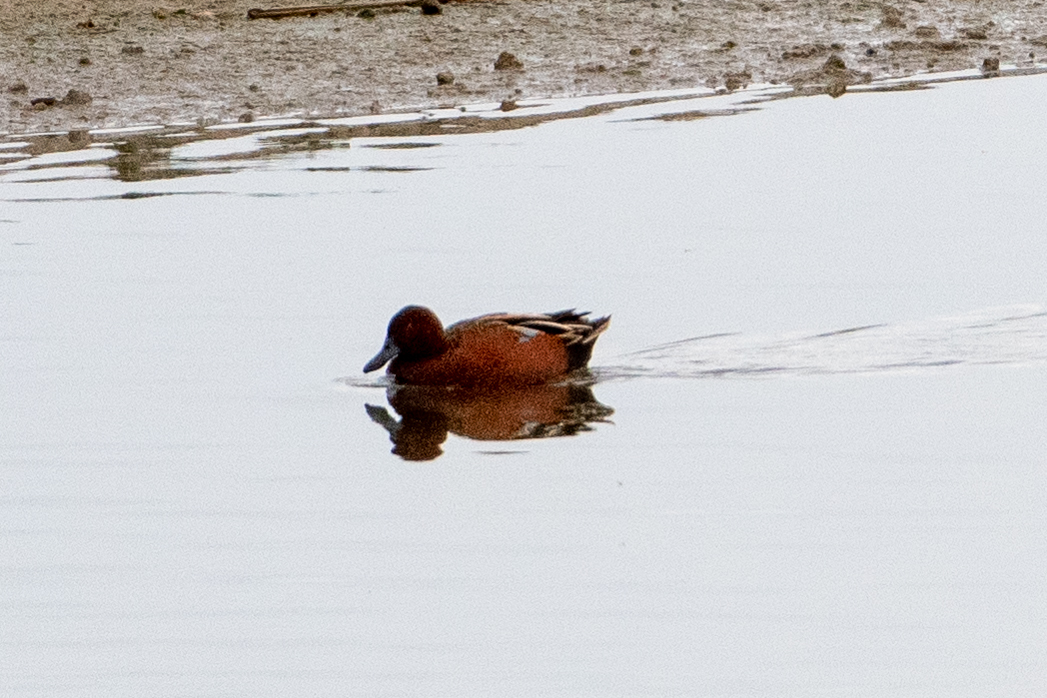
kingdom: Animalia
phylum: Chordata
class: Aves
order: Anseriformes
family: Anatidae
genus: Spatula
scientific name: Spatula cyanoptera
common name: Cinnamon teal
